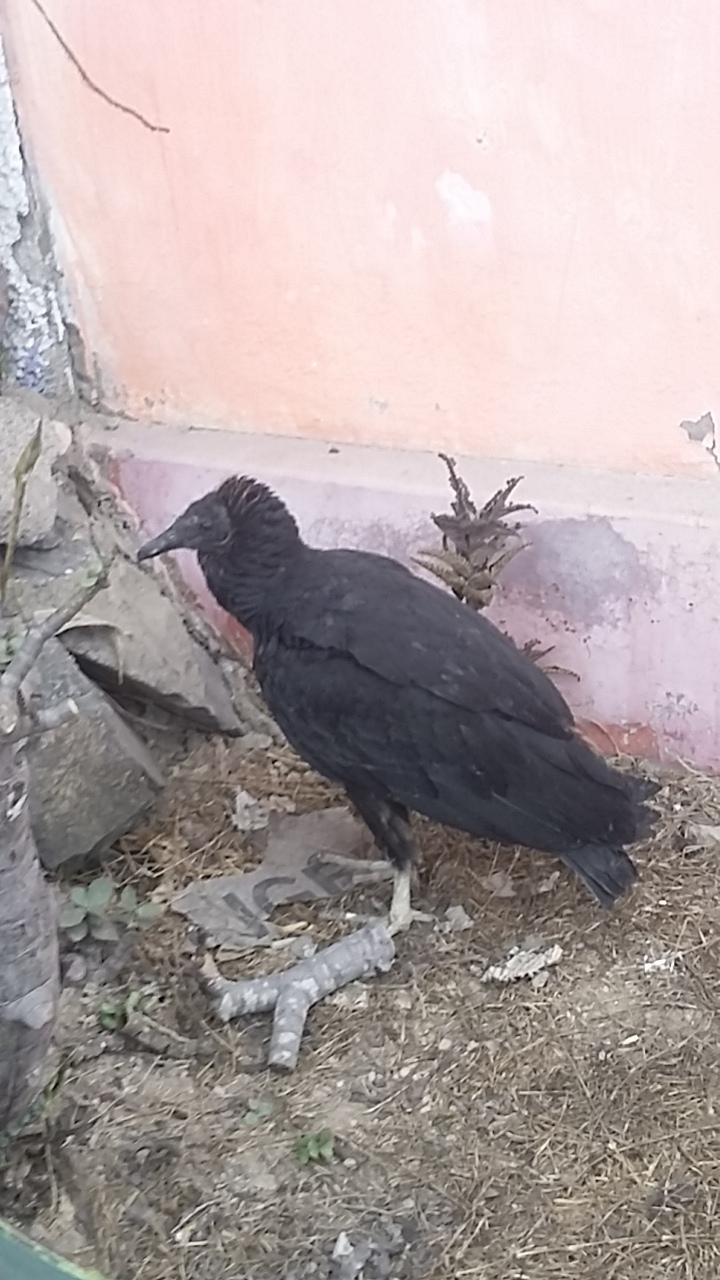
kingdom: Animalia
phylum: Chordata
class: Aves
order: Accipitriformes
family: Cathartidae
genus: Coragyps
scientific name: Coragyps atratus
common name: Black vulture
